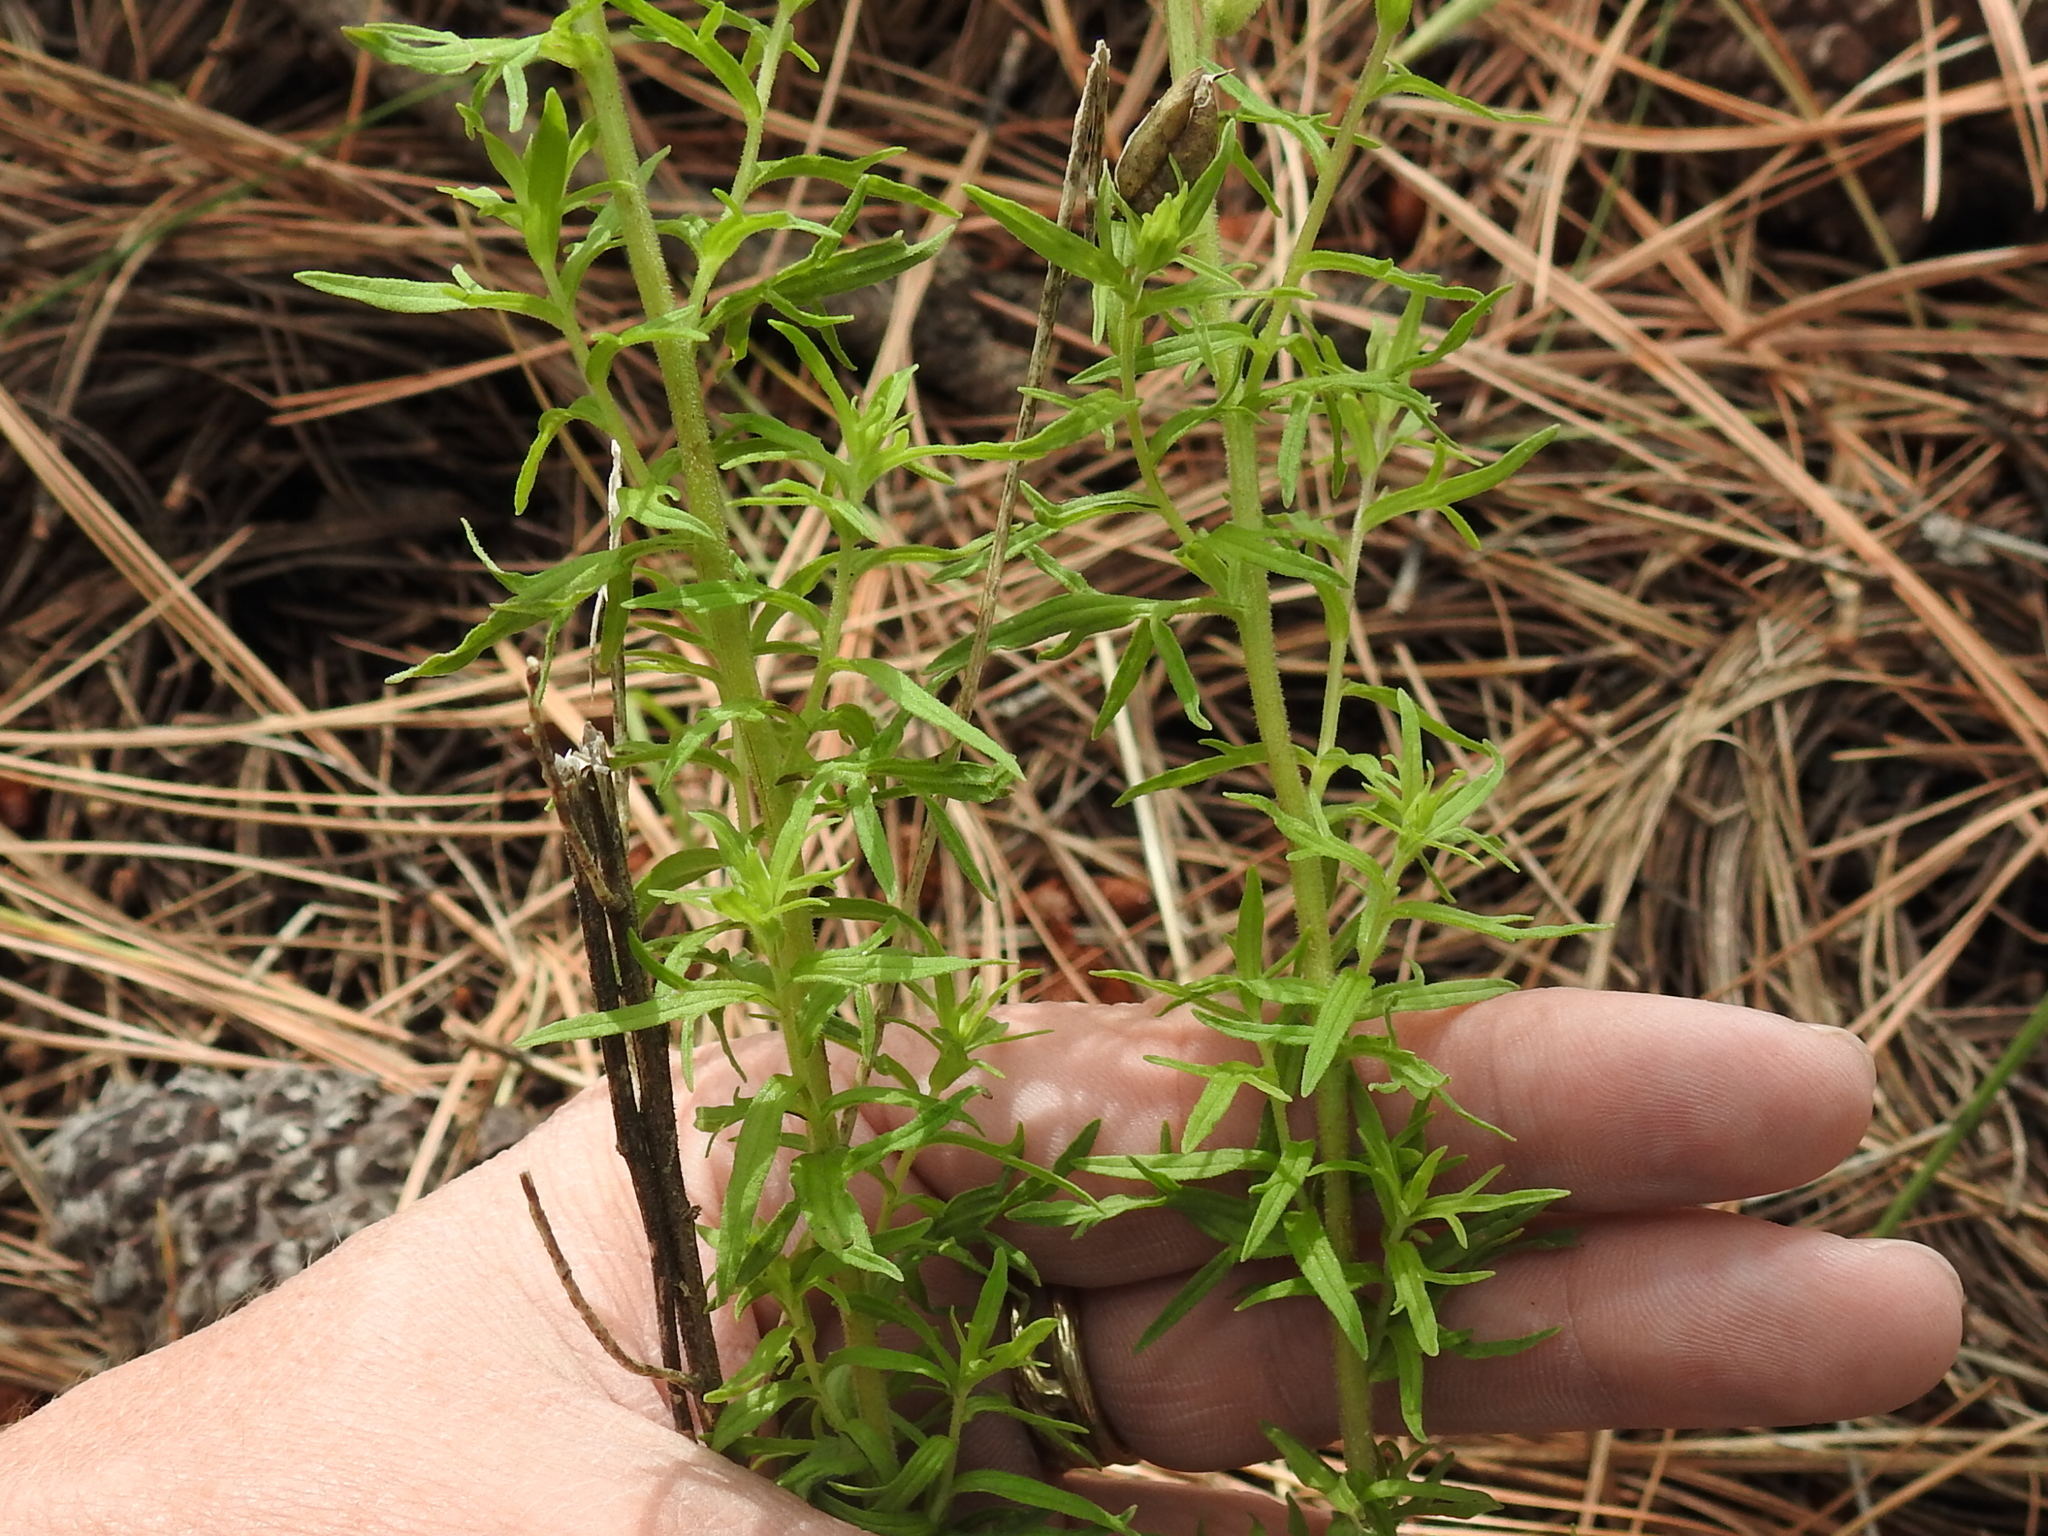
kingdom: Plantae
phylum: Tracheophyta
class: Magnoliopsida
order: Lamiales
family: Orobanchaceae
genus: Castilleja
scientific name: Castilleja patriotica
